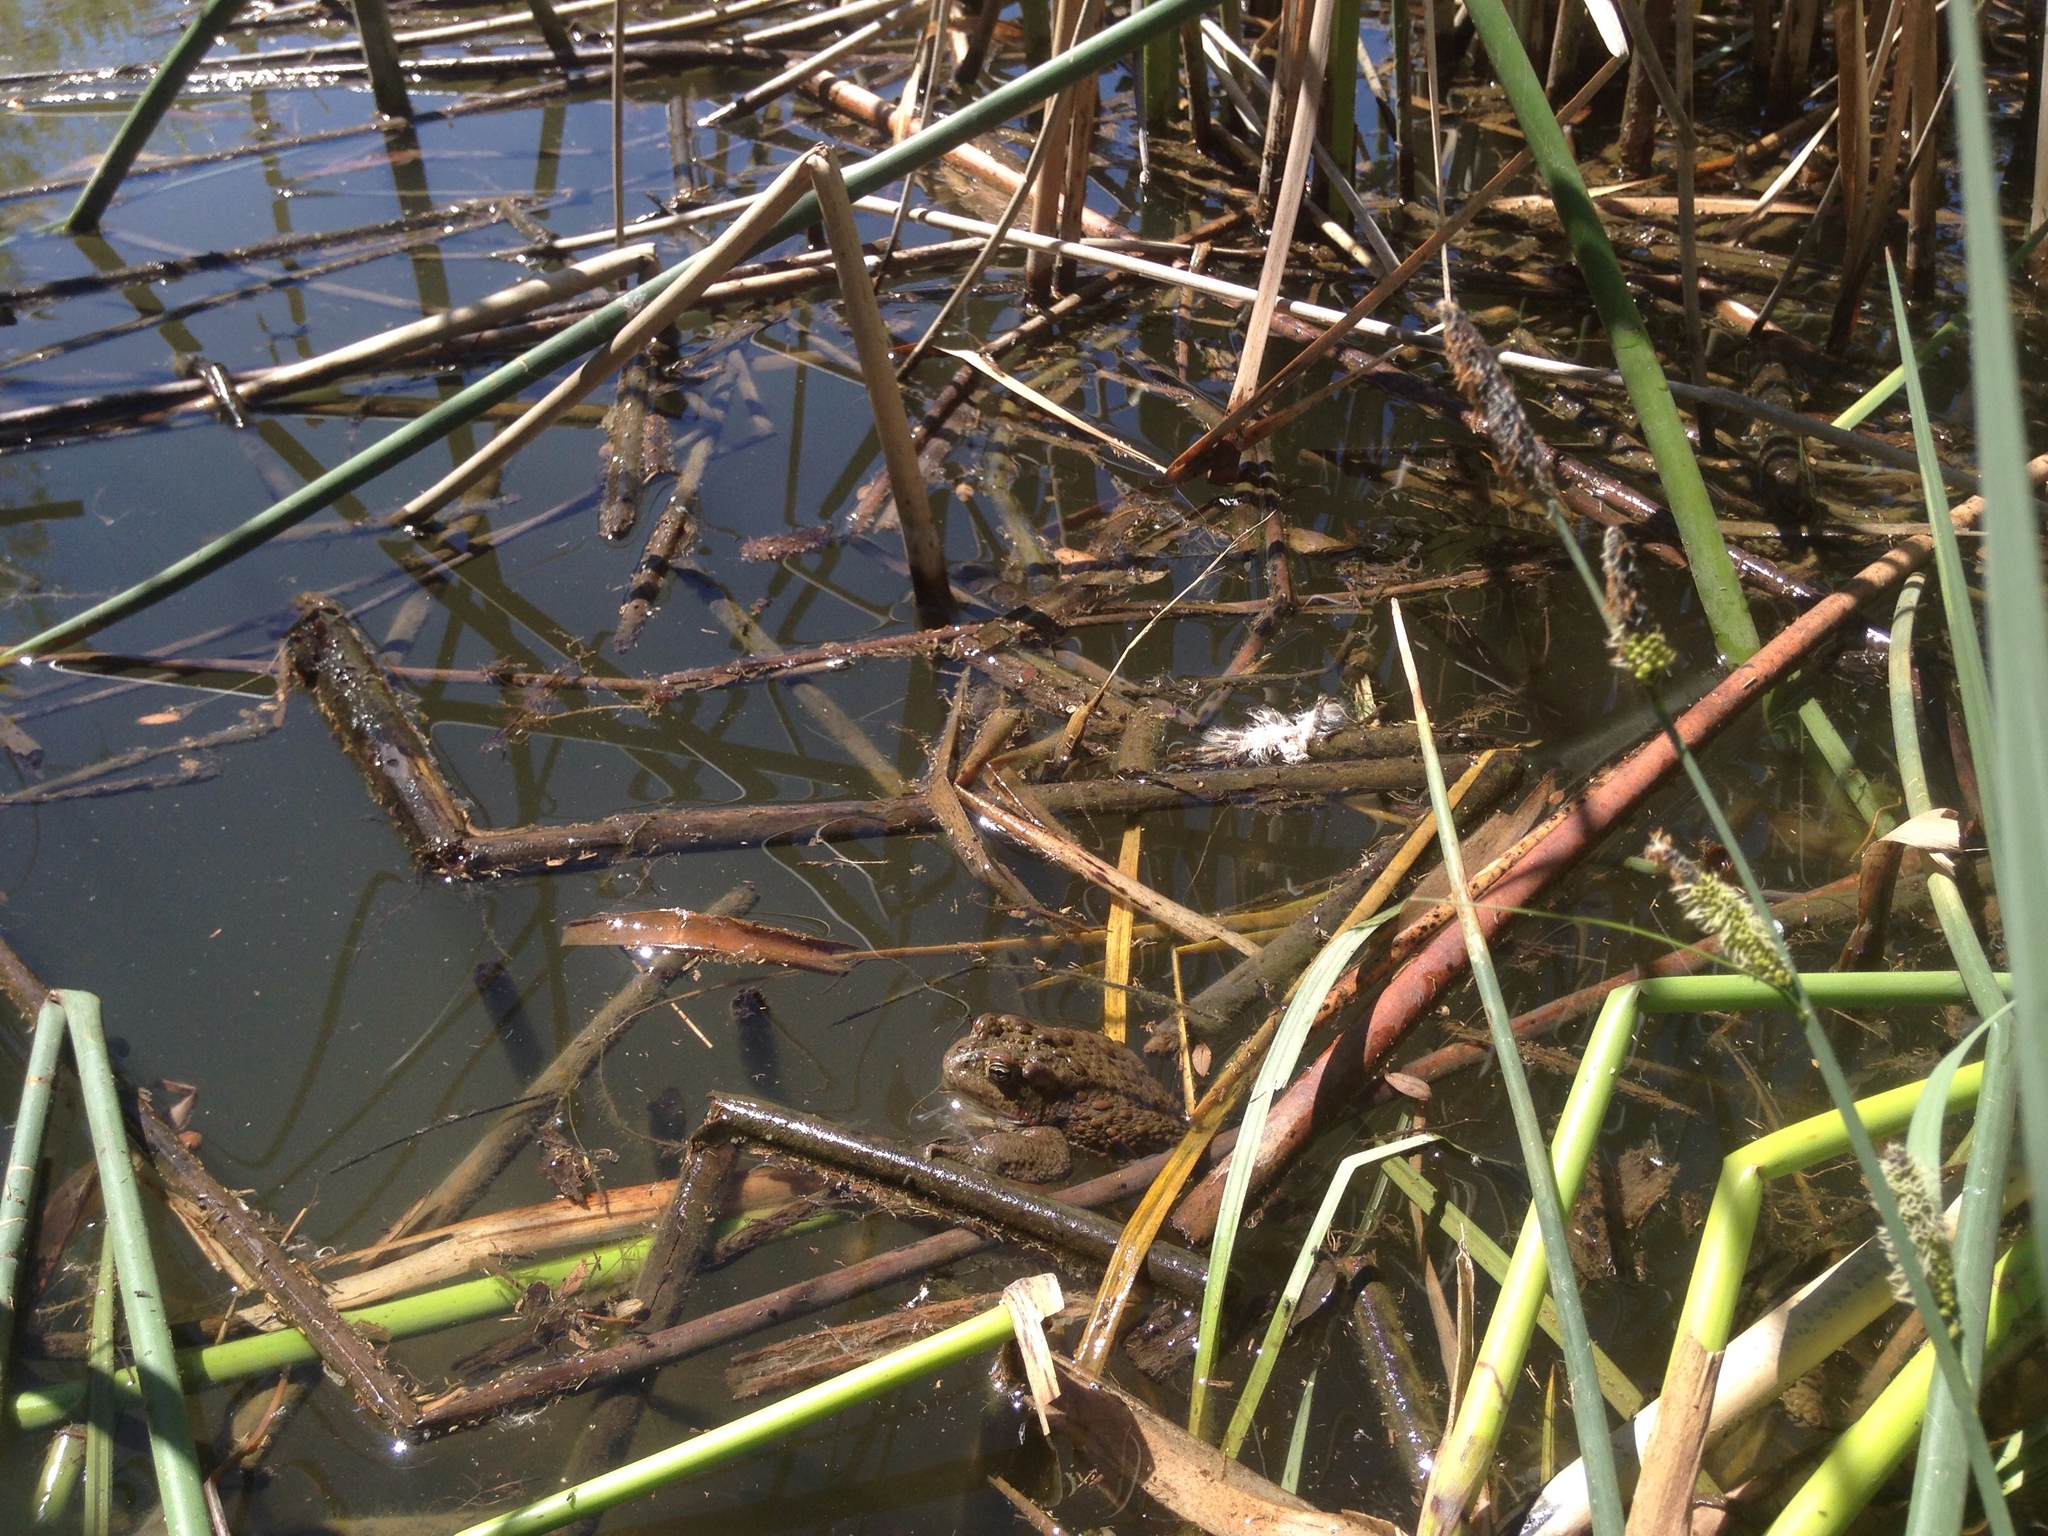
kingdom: Animalia
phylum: Chordata
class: Amphibia
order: Anura
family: Bufonidae
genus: Anaxyrus
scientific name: Anaxyrus boreas
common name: Western toad
